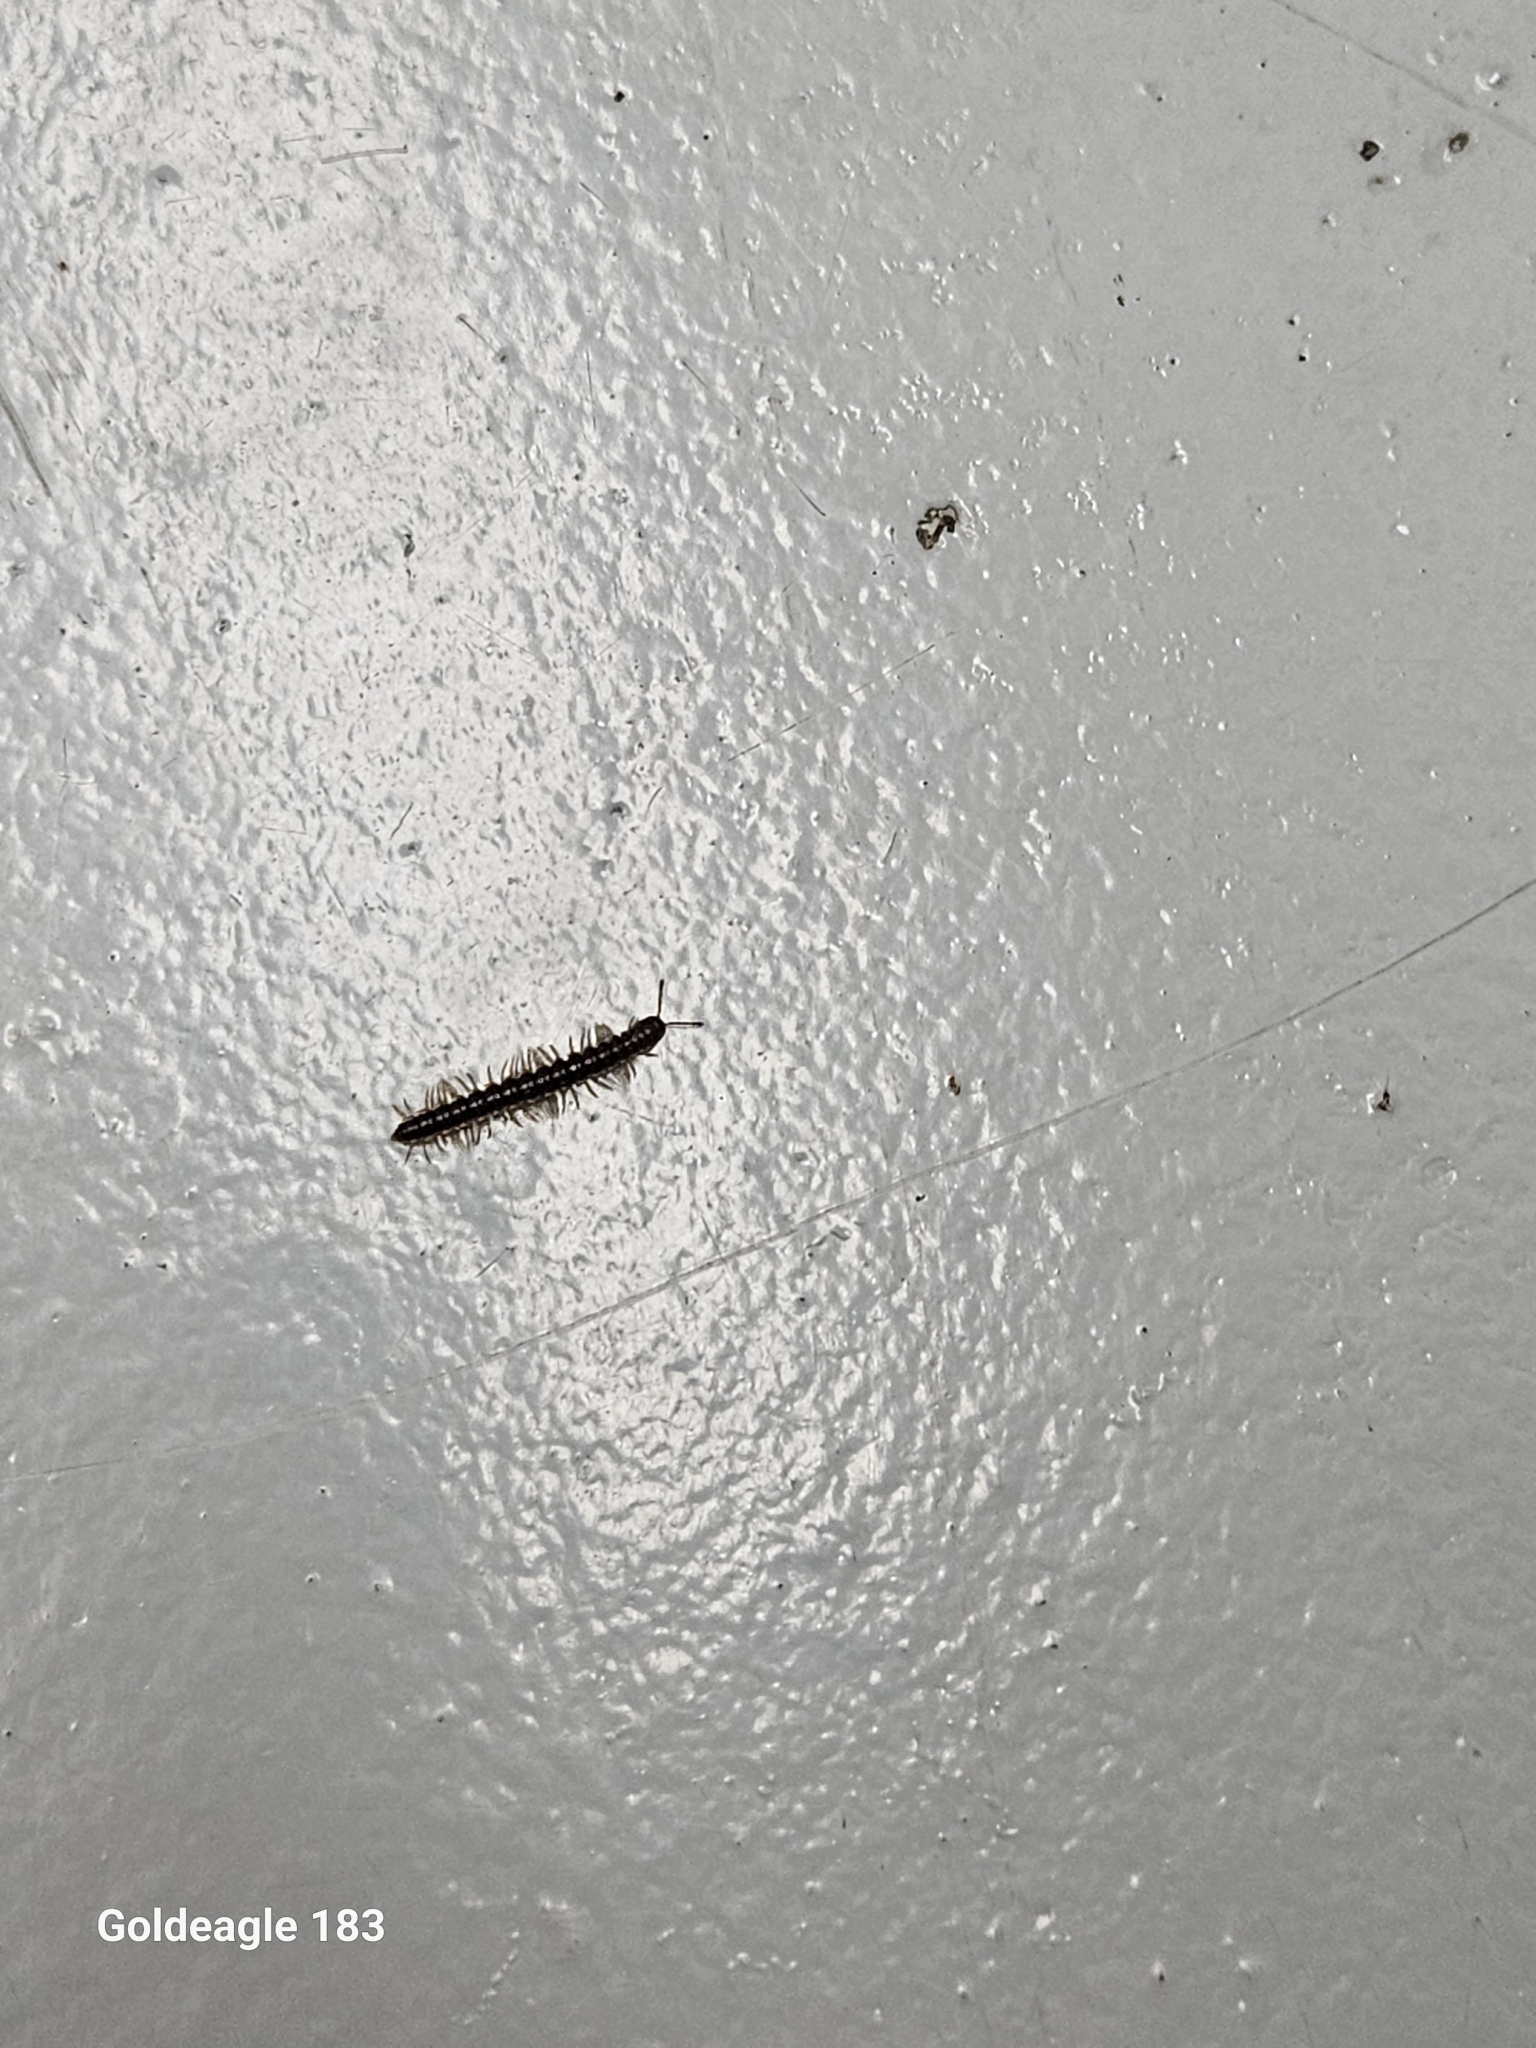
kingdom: Animalia
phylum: Arthropoda
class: Diplopoda
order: Polydesmida
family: Paradoxosomatidae
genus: Oxidus
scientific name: Oxidus gracilis
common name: Greenhouse millipede
